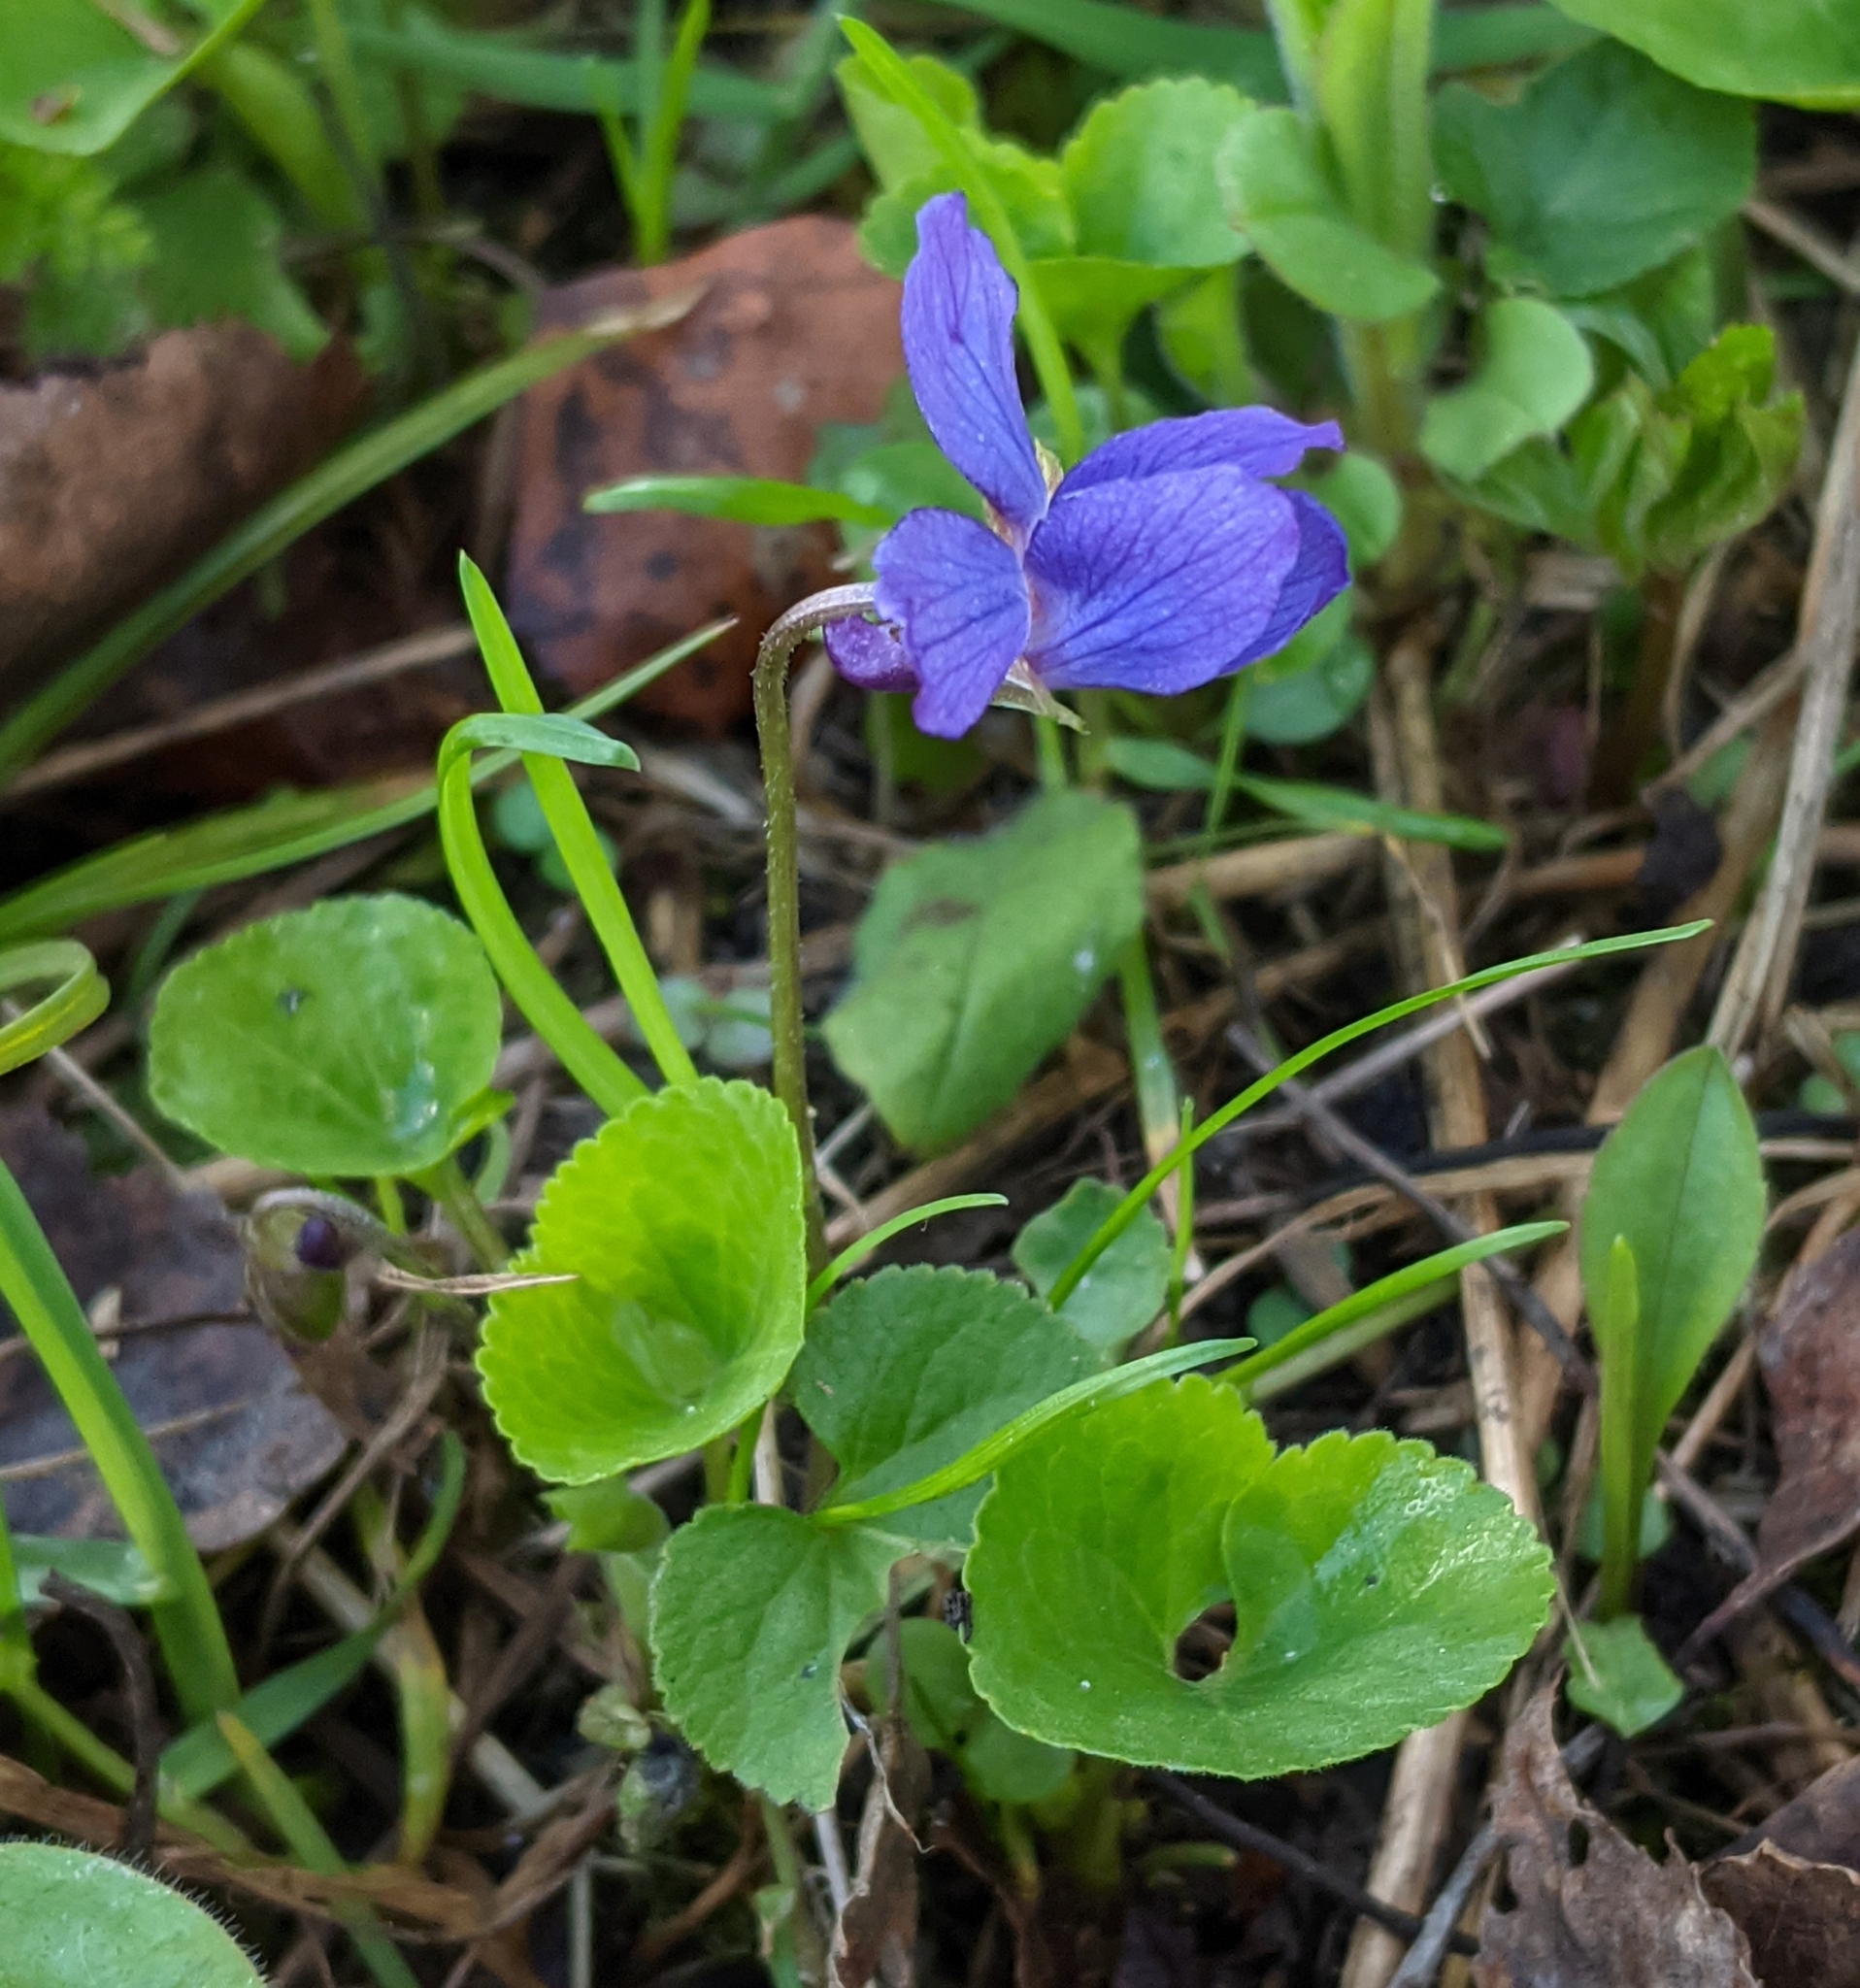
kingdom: Plantae
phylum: Tracheophyta
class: Magnoliopsida
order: Malpighiales
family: Violaceae
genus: Viola
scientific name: Viola odorata
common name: Sweet violet
